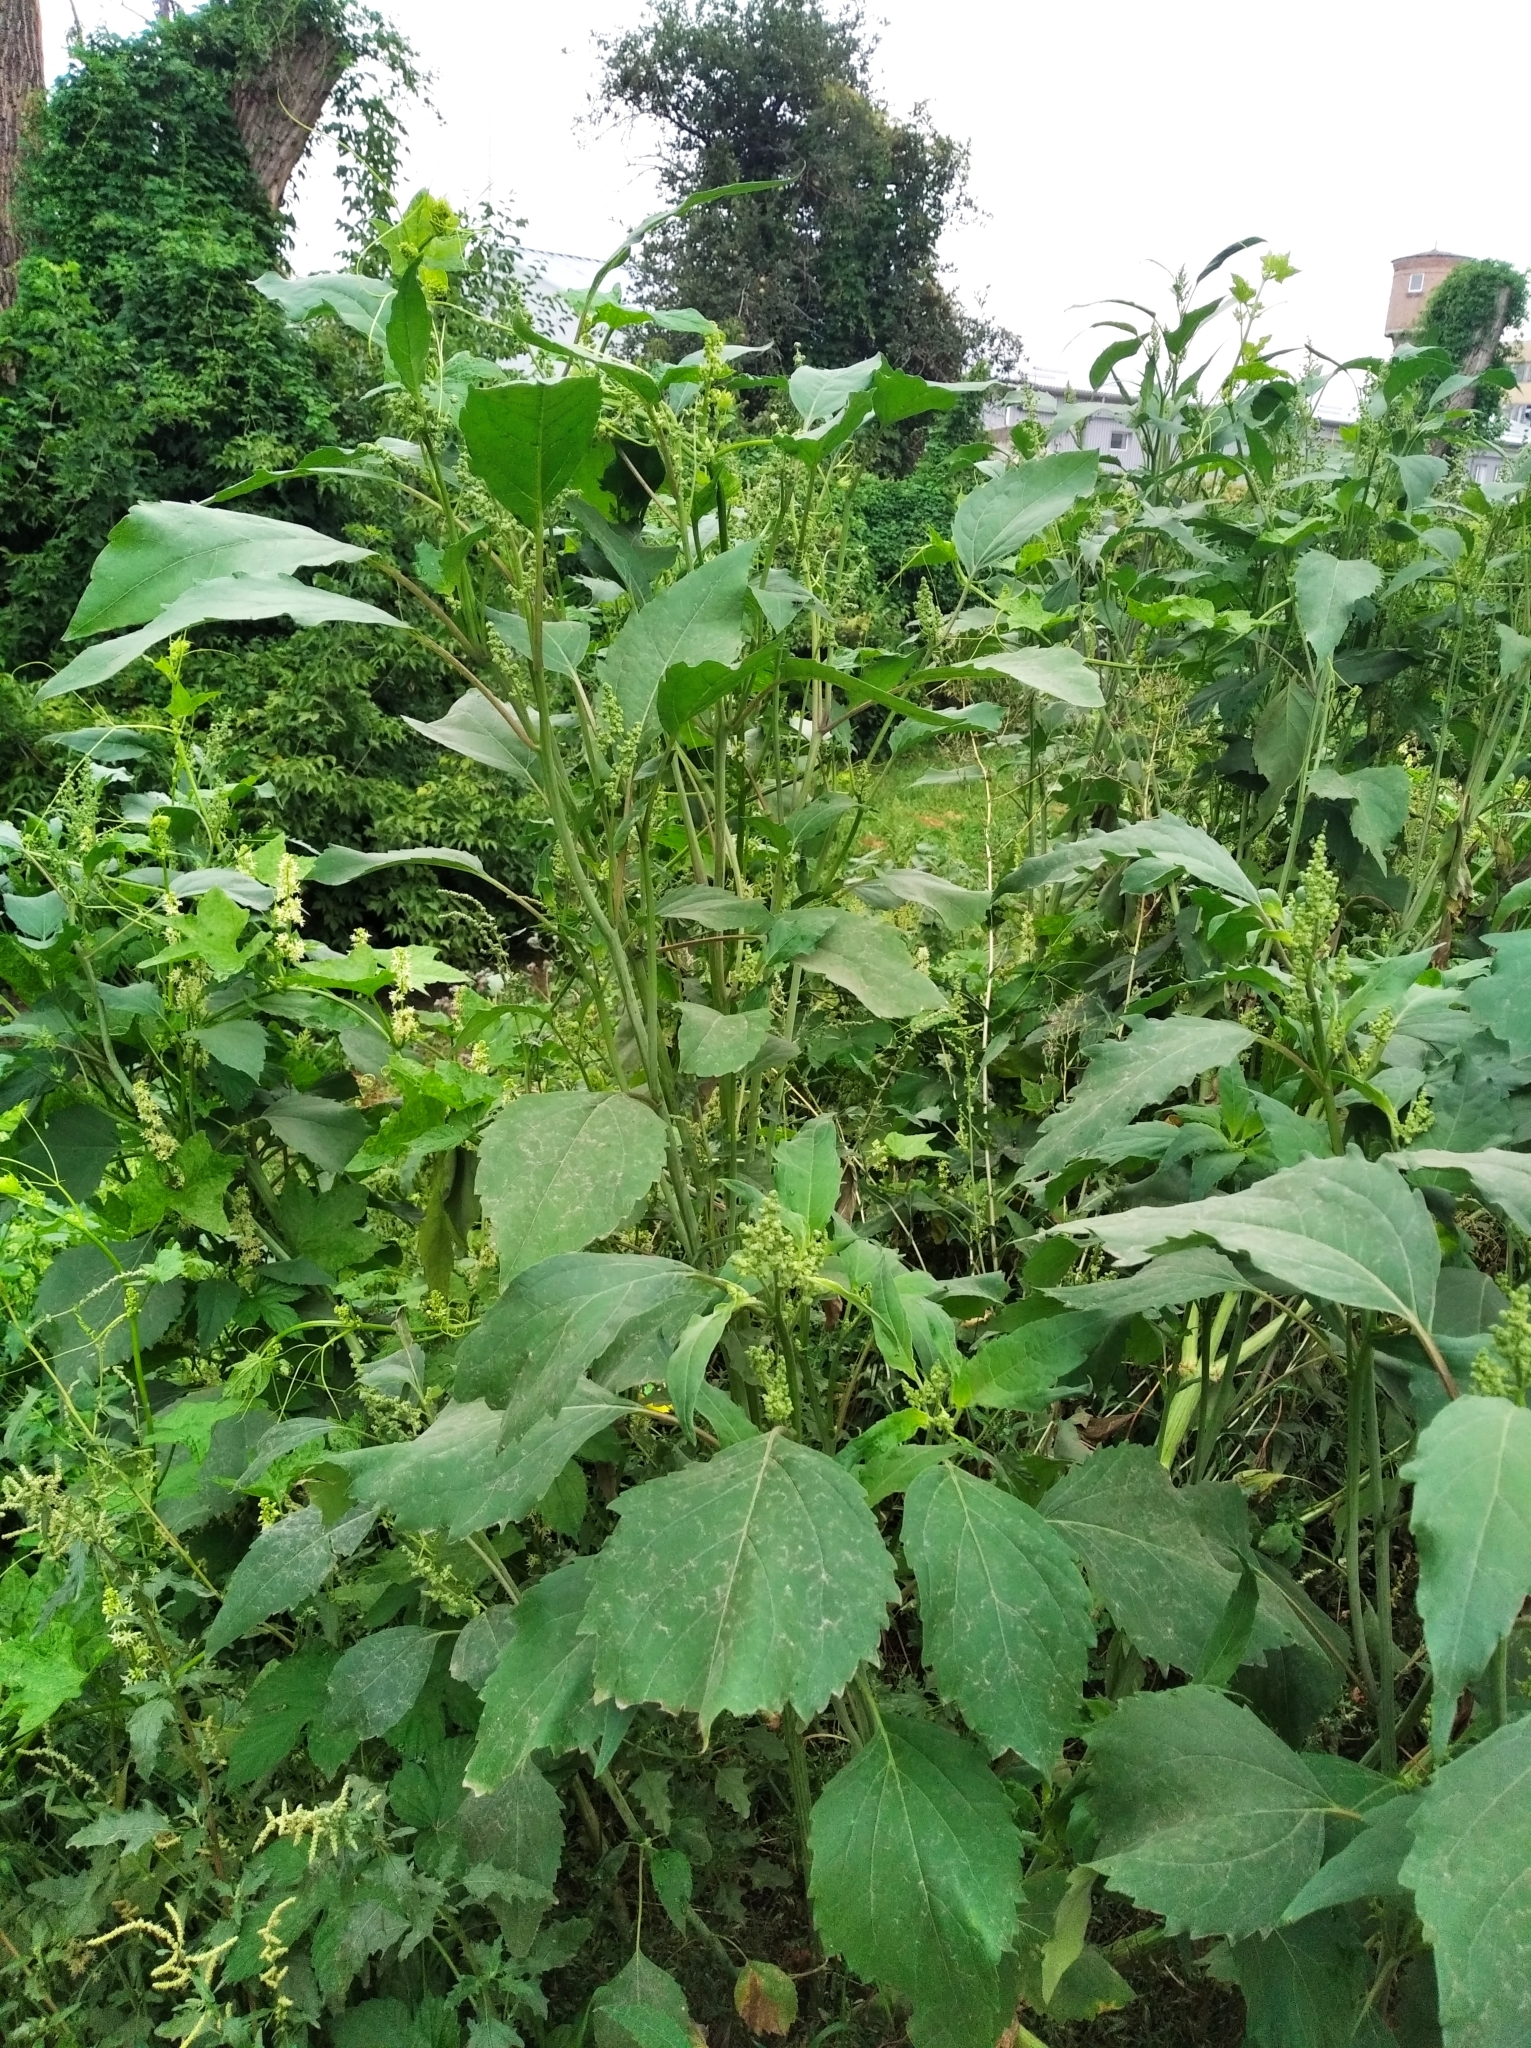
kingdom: Plantae
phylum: Tracheophyta
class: Magnoliopsida
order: Asterales
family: Asteraceae
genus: Cyclachaena
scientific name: Cyclachaena xanthiifolia
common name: Giant sumpweed
